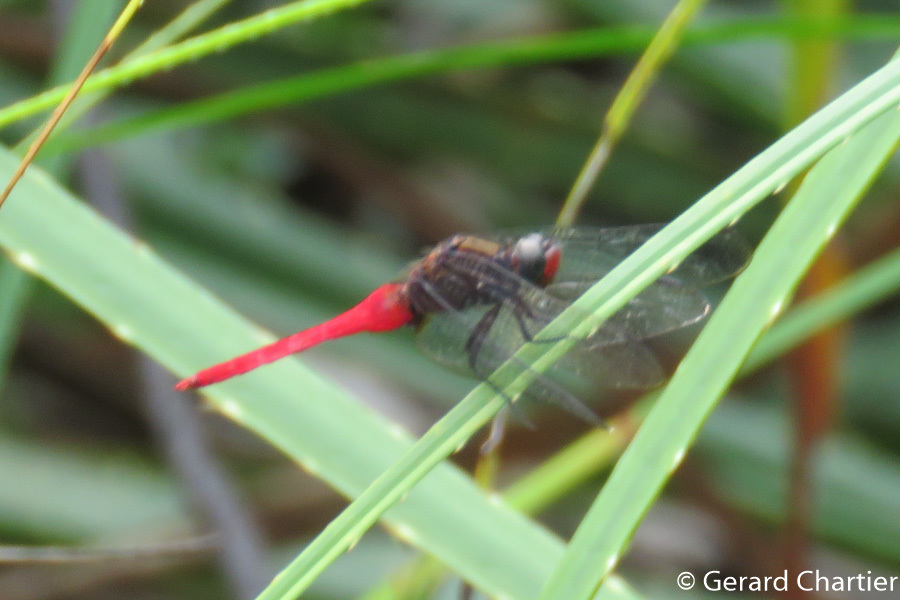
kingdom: Animalia
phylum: Arthropoda
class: Insecta
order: Odonata
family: Libellulidae
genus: Orthetrum
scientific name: Orthetrum chrysis
